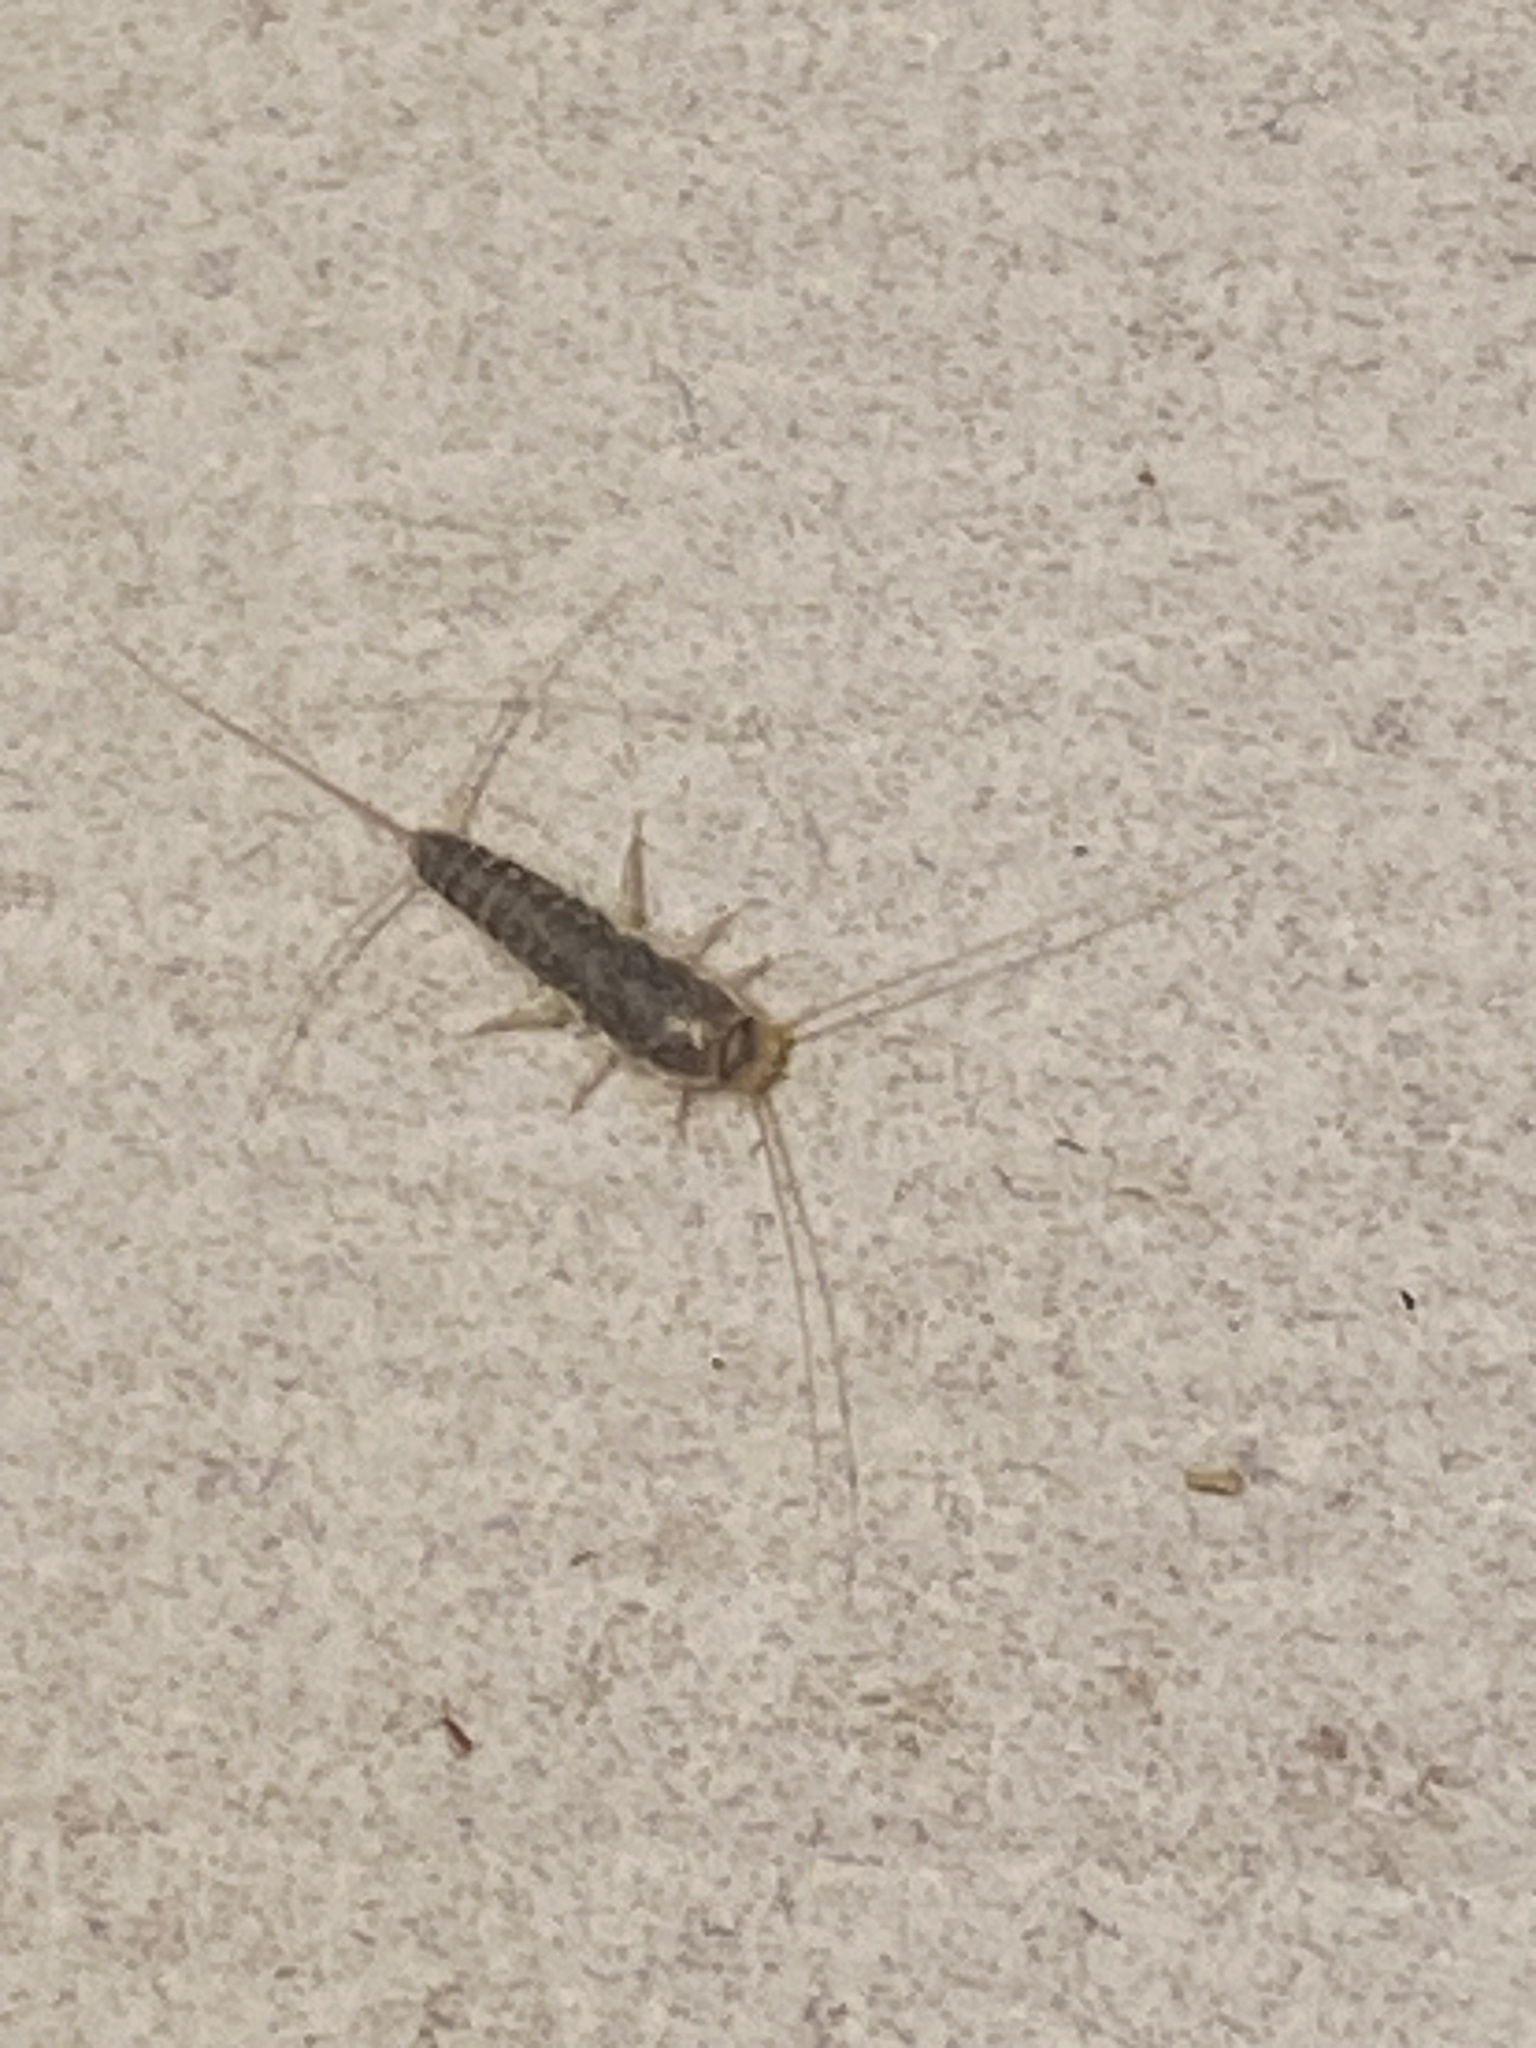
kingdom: Animalia
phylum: Arthropoda
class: Insecta
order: Zygentoma
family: Lepismatidae
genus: Ctenolepisma
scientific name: Ctenolepisma longicaudatum
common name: Silverfish
